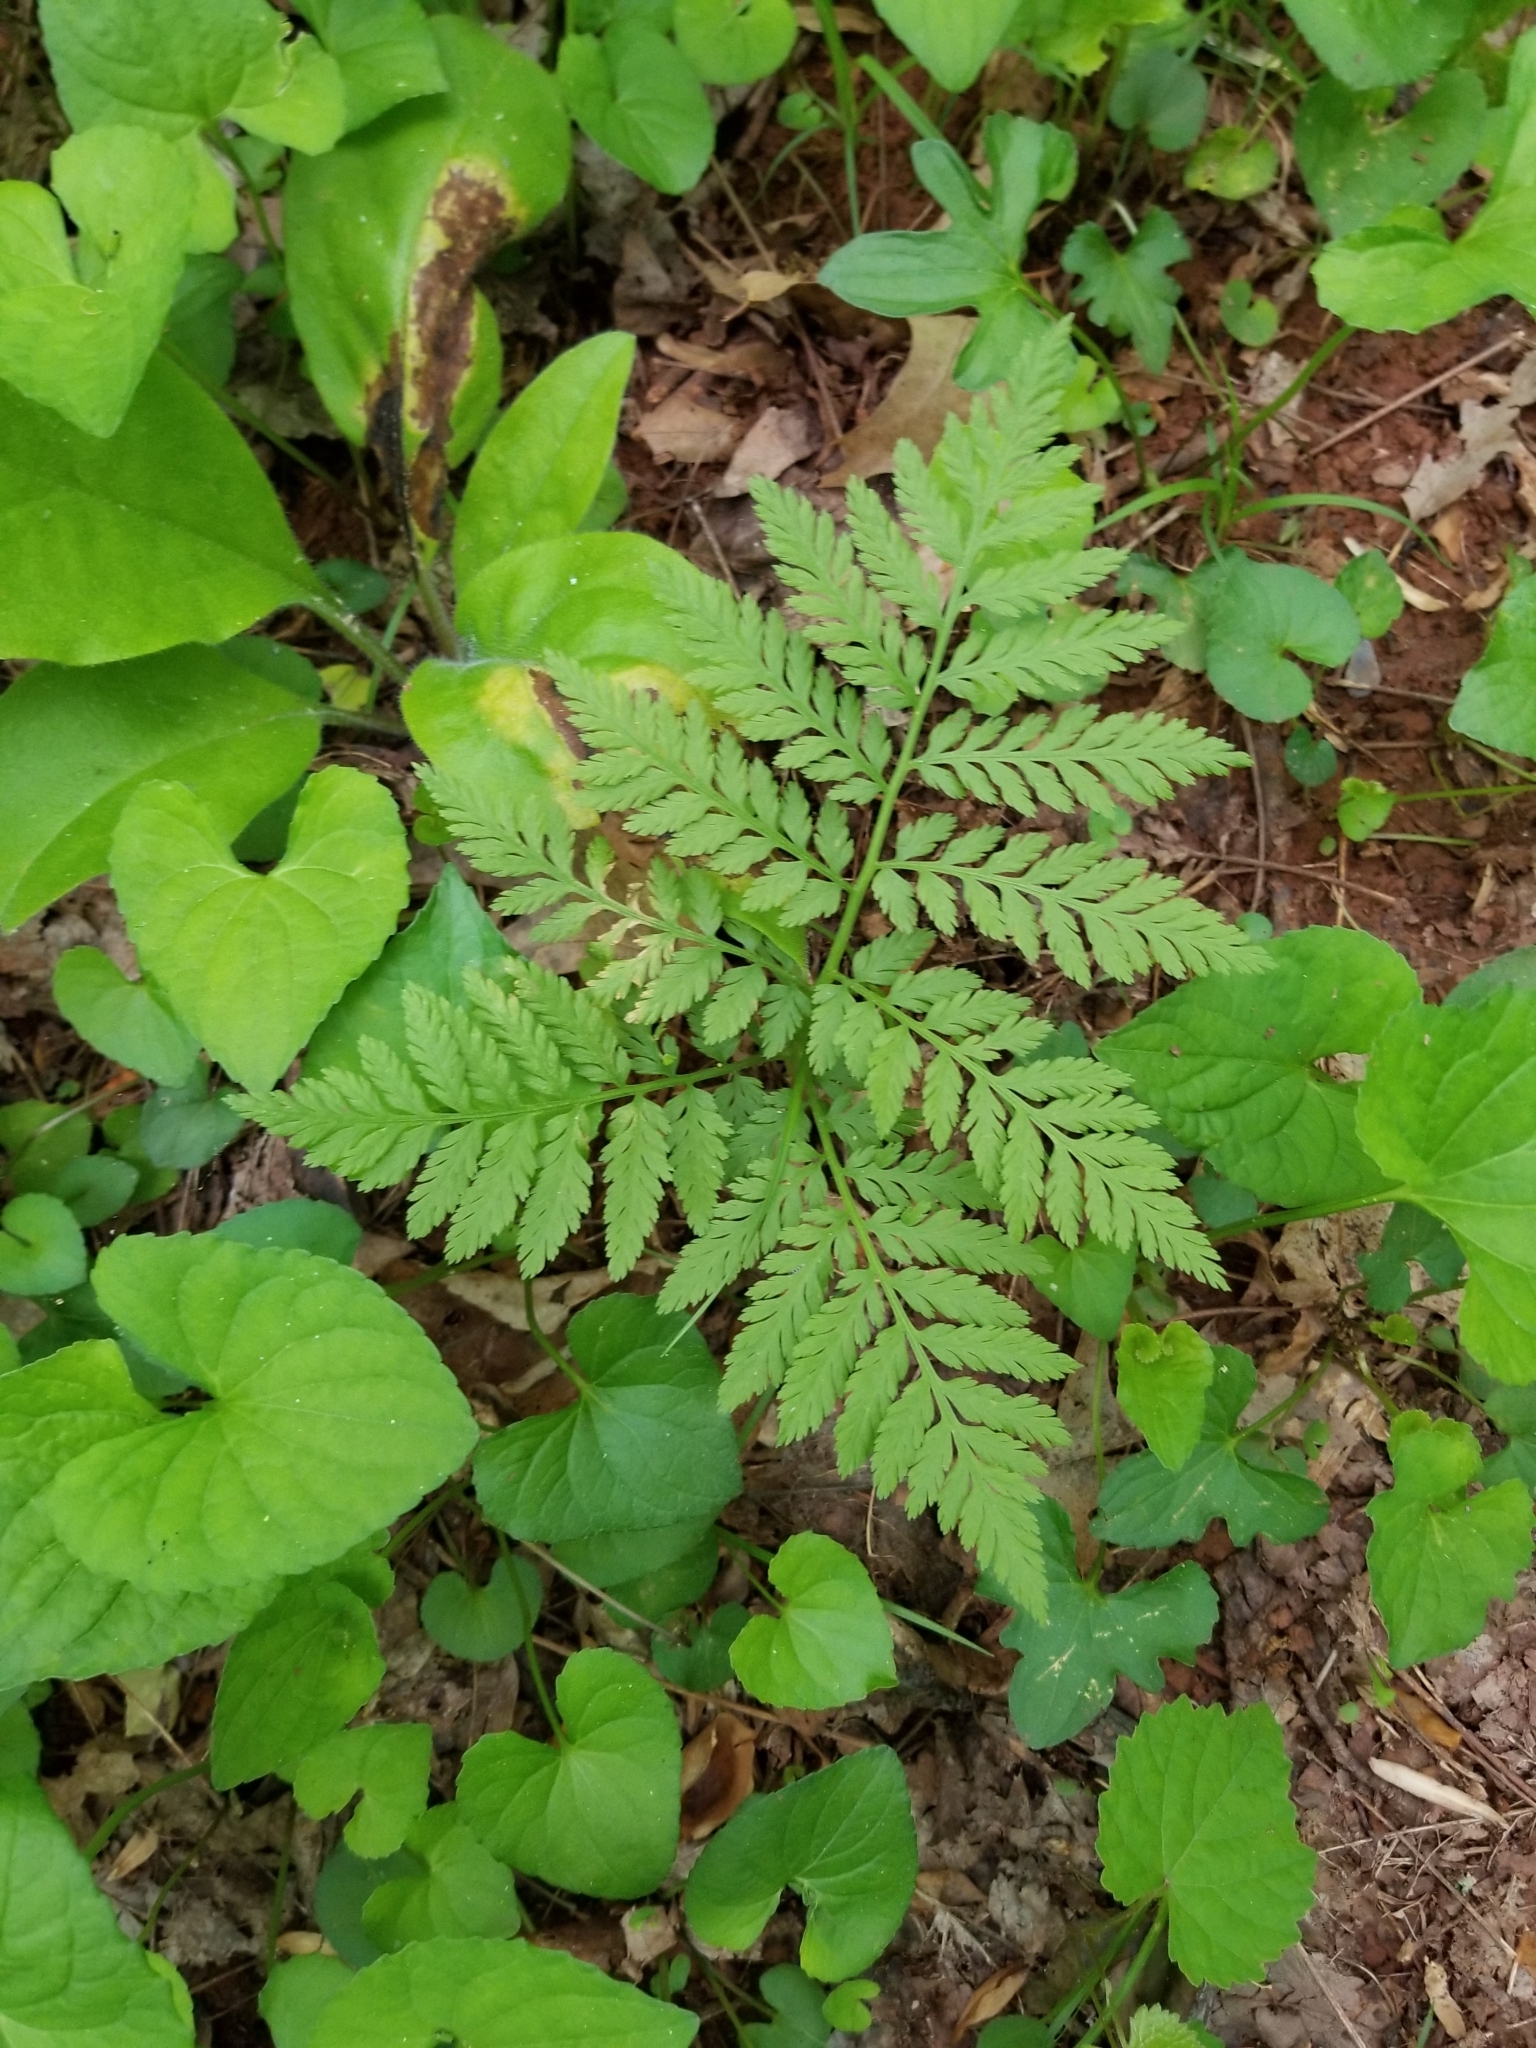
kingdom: Plantae
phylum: Tracheophyta
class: Polypodiopsida
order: Ophioglossales
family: Ophioglossaceae
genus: Botrypus
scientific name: Botrypus virginianus
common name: Common grapefern
